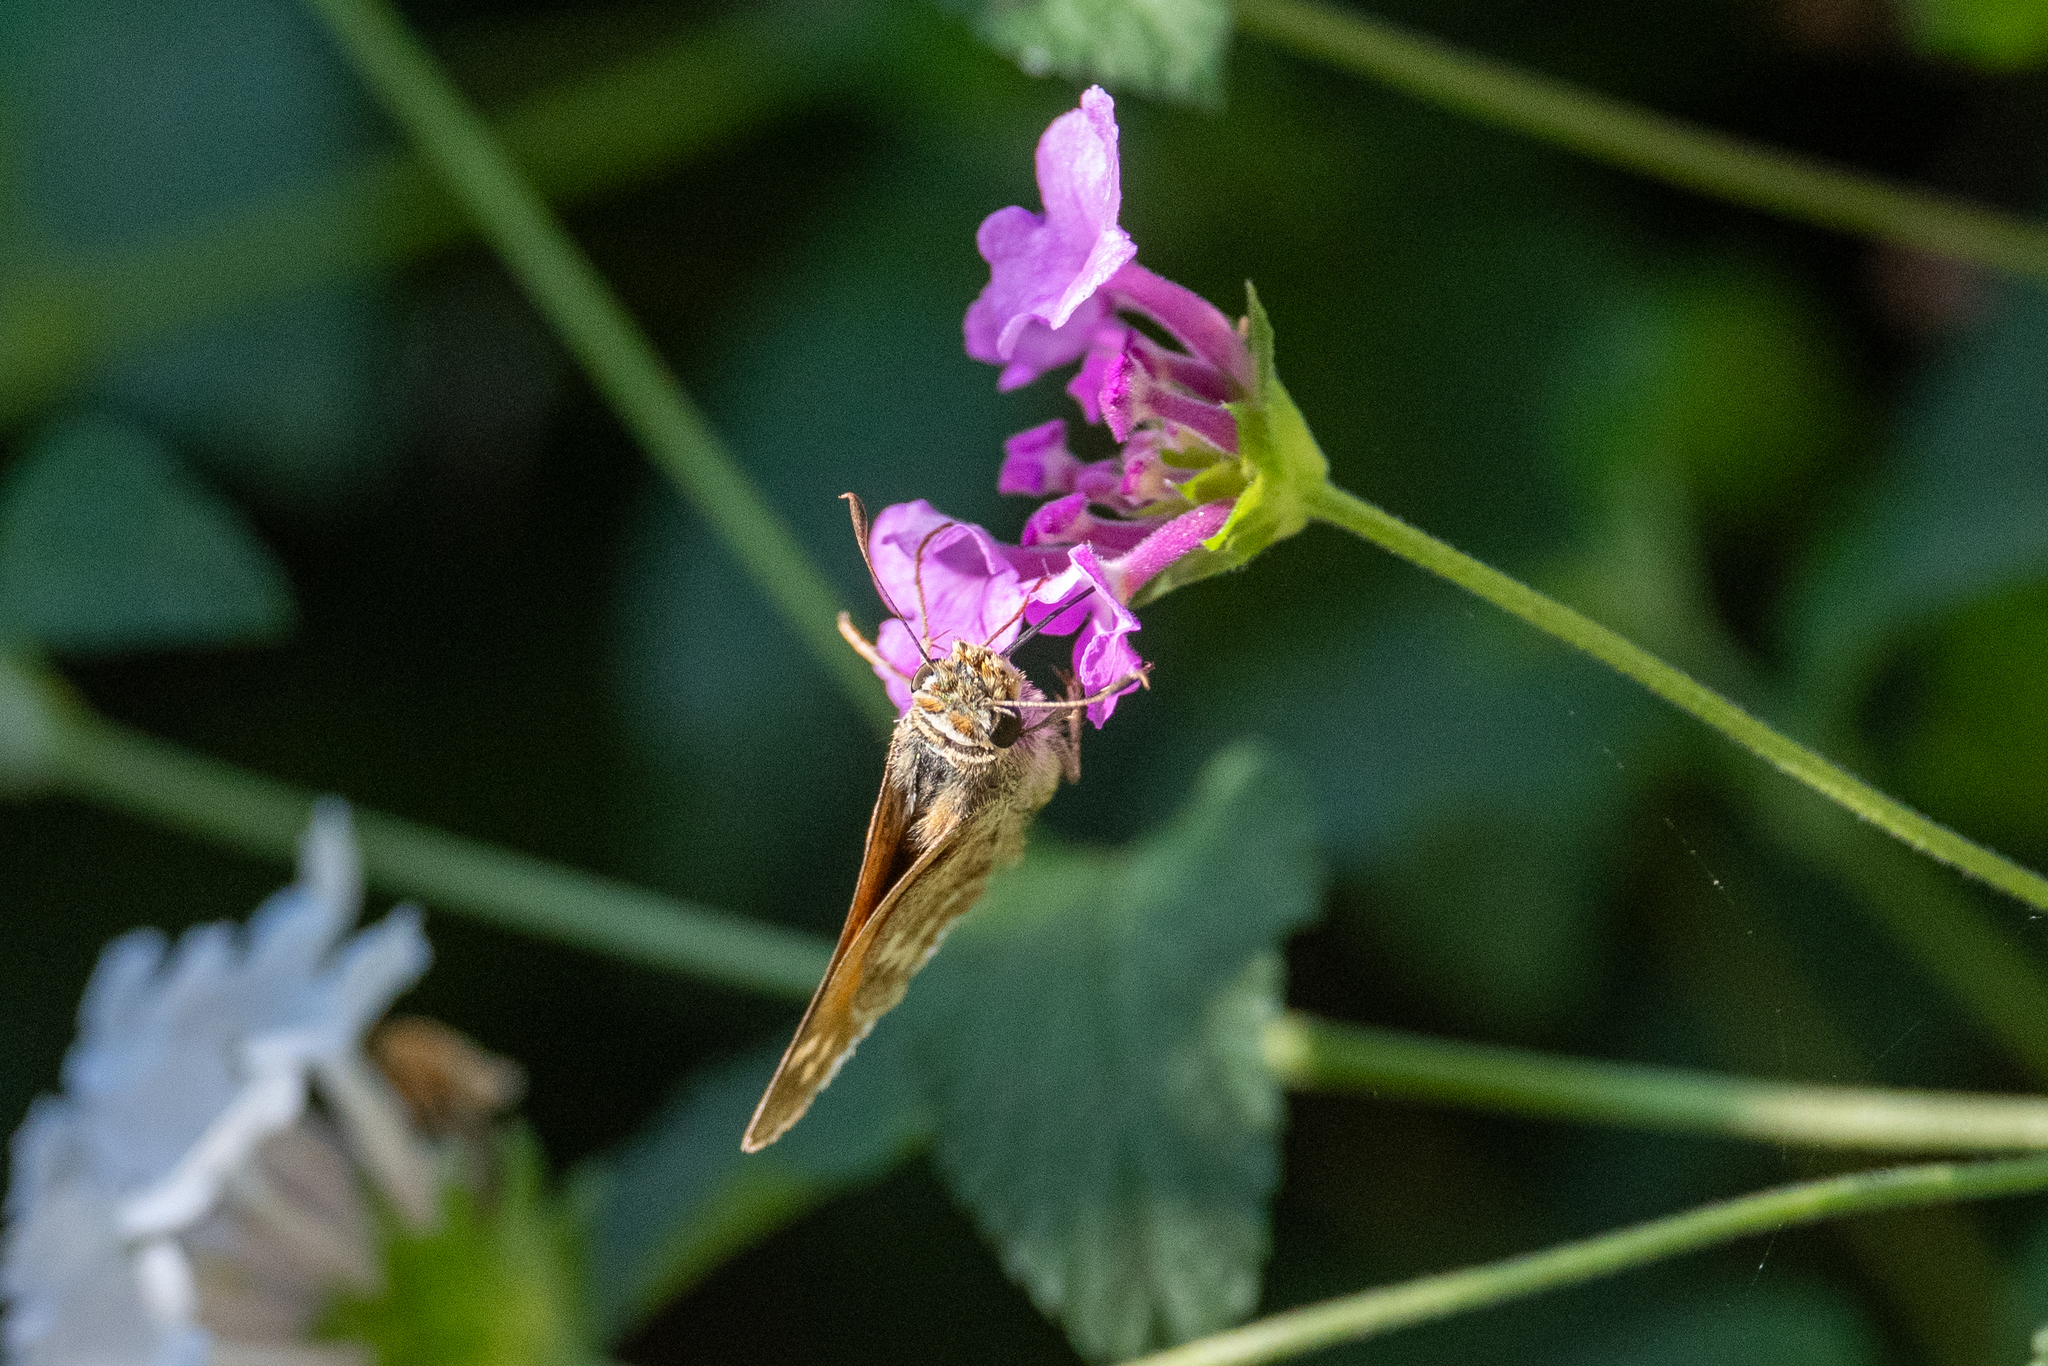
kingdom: Animalia
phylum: Arthropoda
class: Insecta
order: Lepidoptera
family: Hesperiidae
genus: Atalopedes
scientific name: Atalopedes campestris
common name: Sachem
